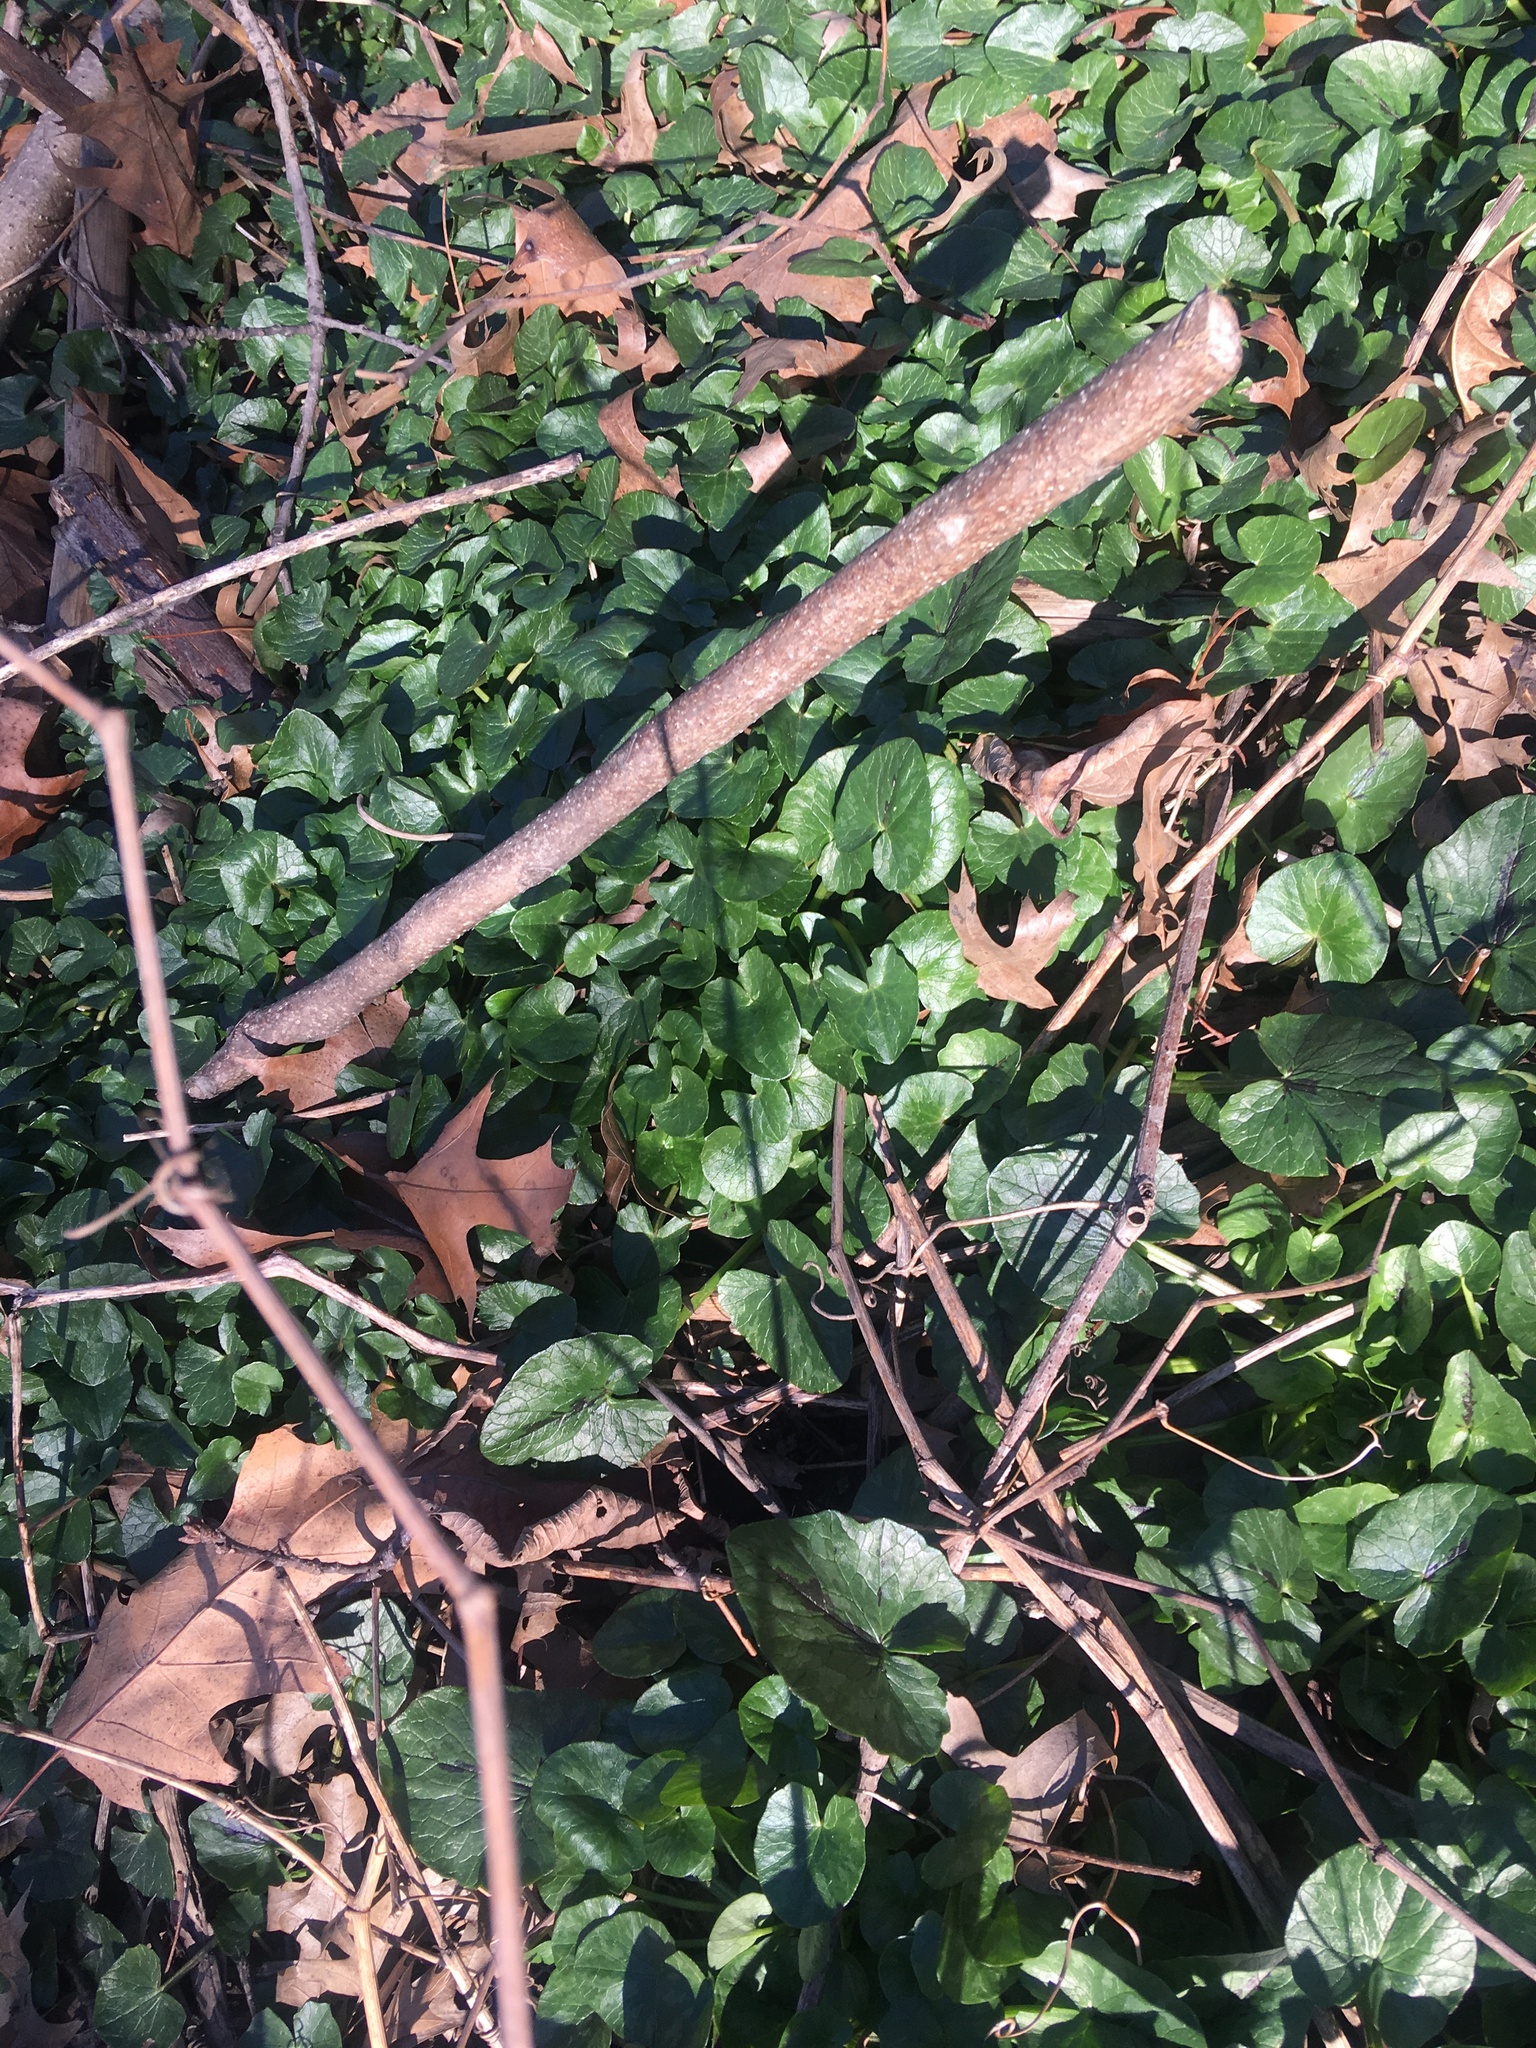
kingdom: Plantae
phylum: Tracheophyta
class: Magnoliopsida
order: Ranunculales
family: Ranunculaceae
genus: Ficaria
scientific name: Ficaria verna
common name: Lesser celandine
